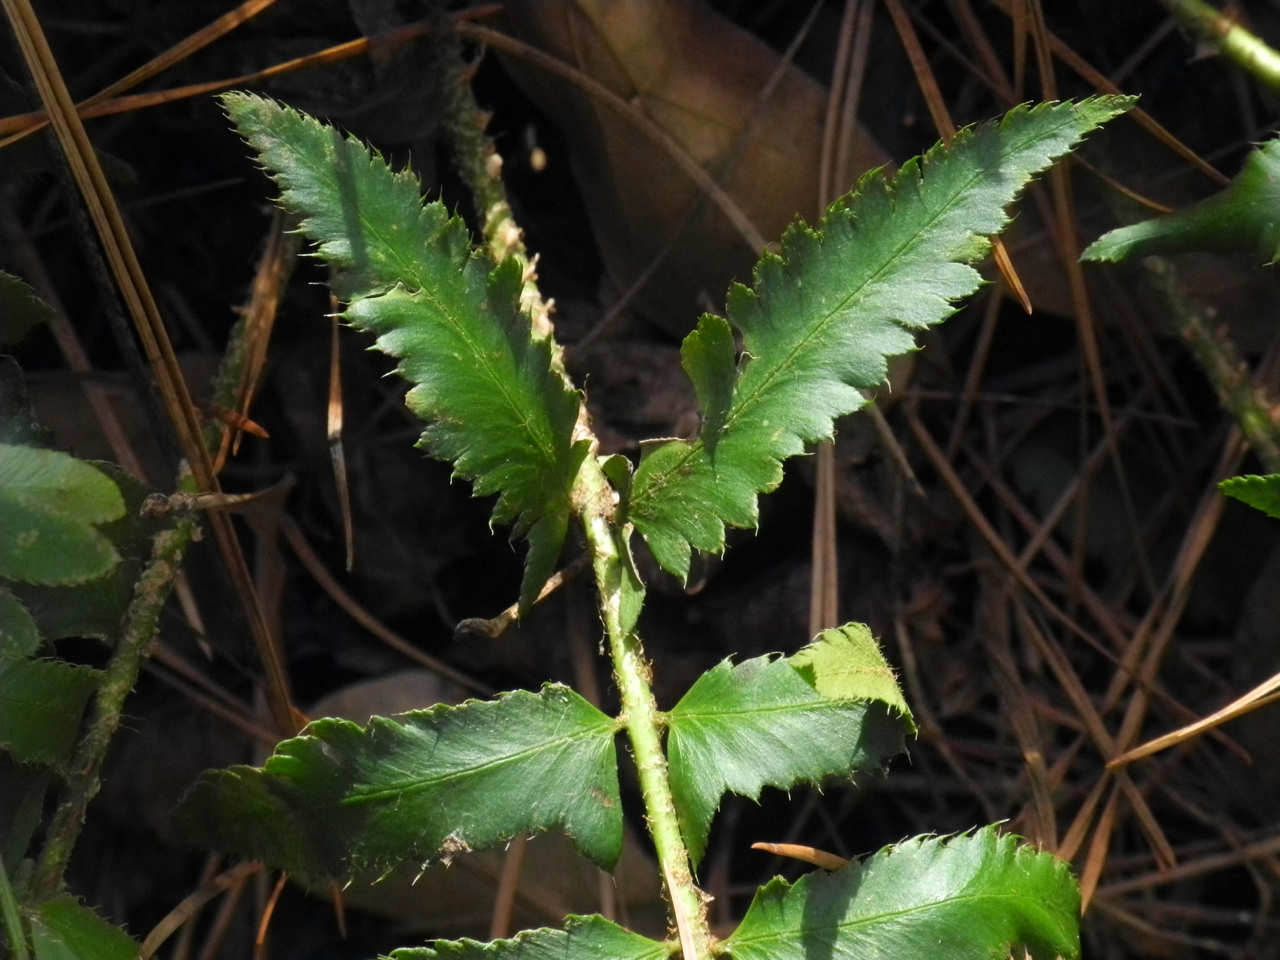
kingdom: Plantae
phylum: Tracheophyta
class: Polypodiopsida
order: Polypodiales
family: Dryopteridaceae
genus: Polystichum
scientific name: Polystichum acrostichoides
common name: Christmas fern
